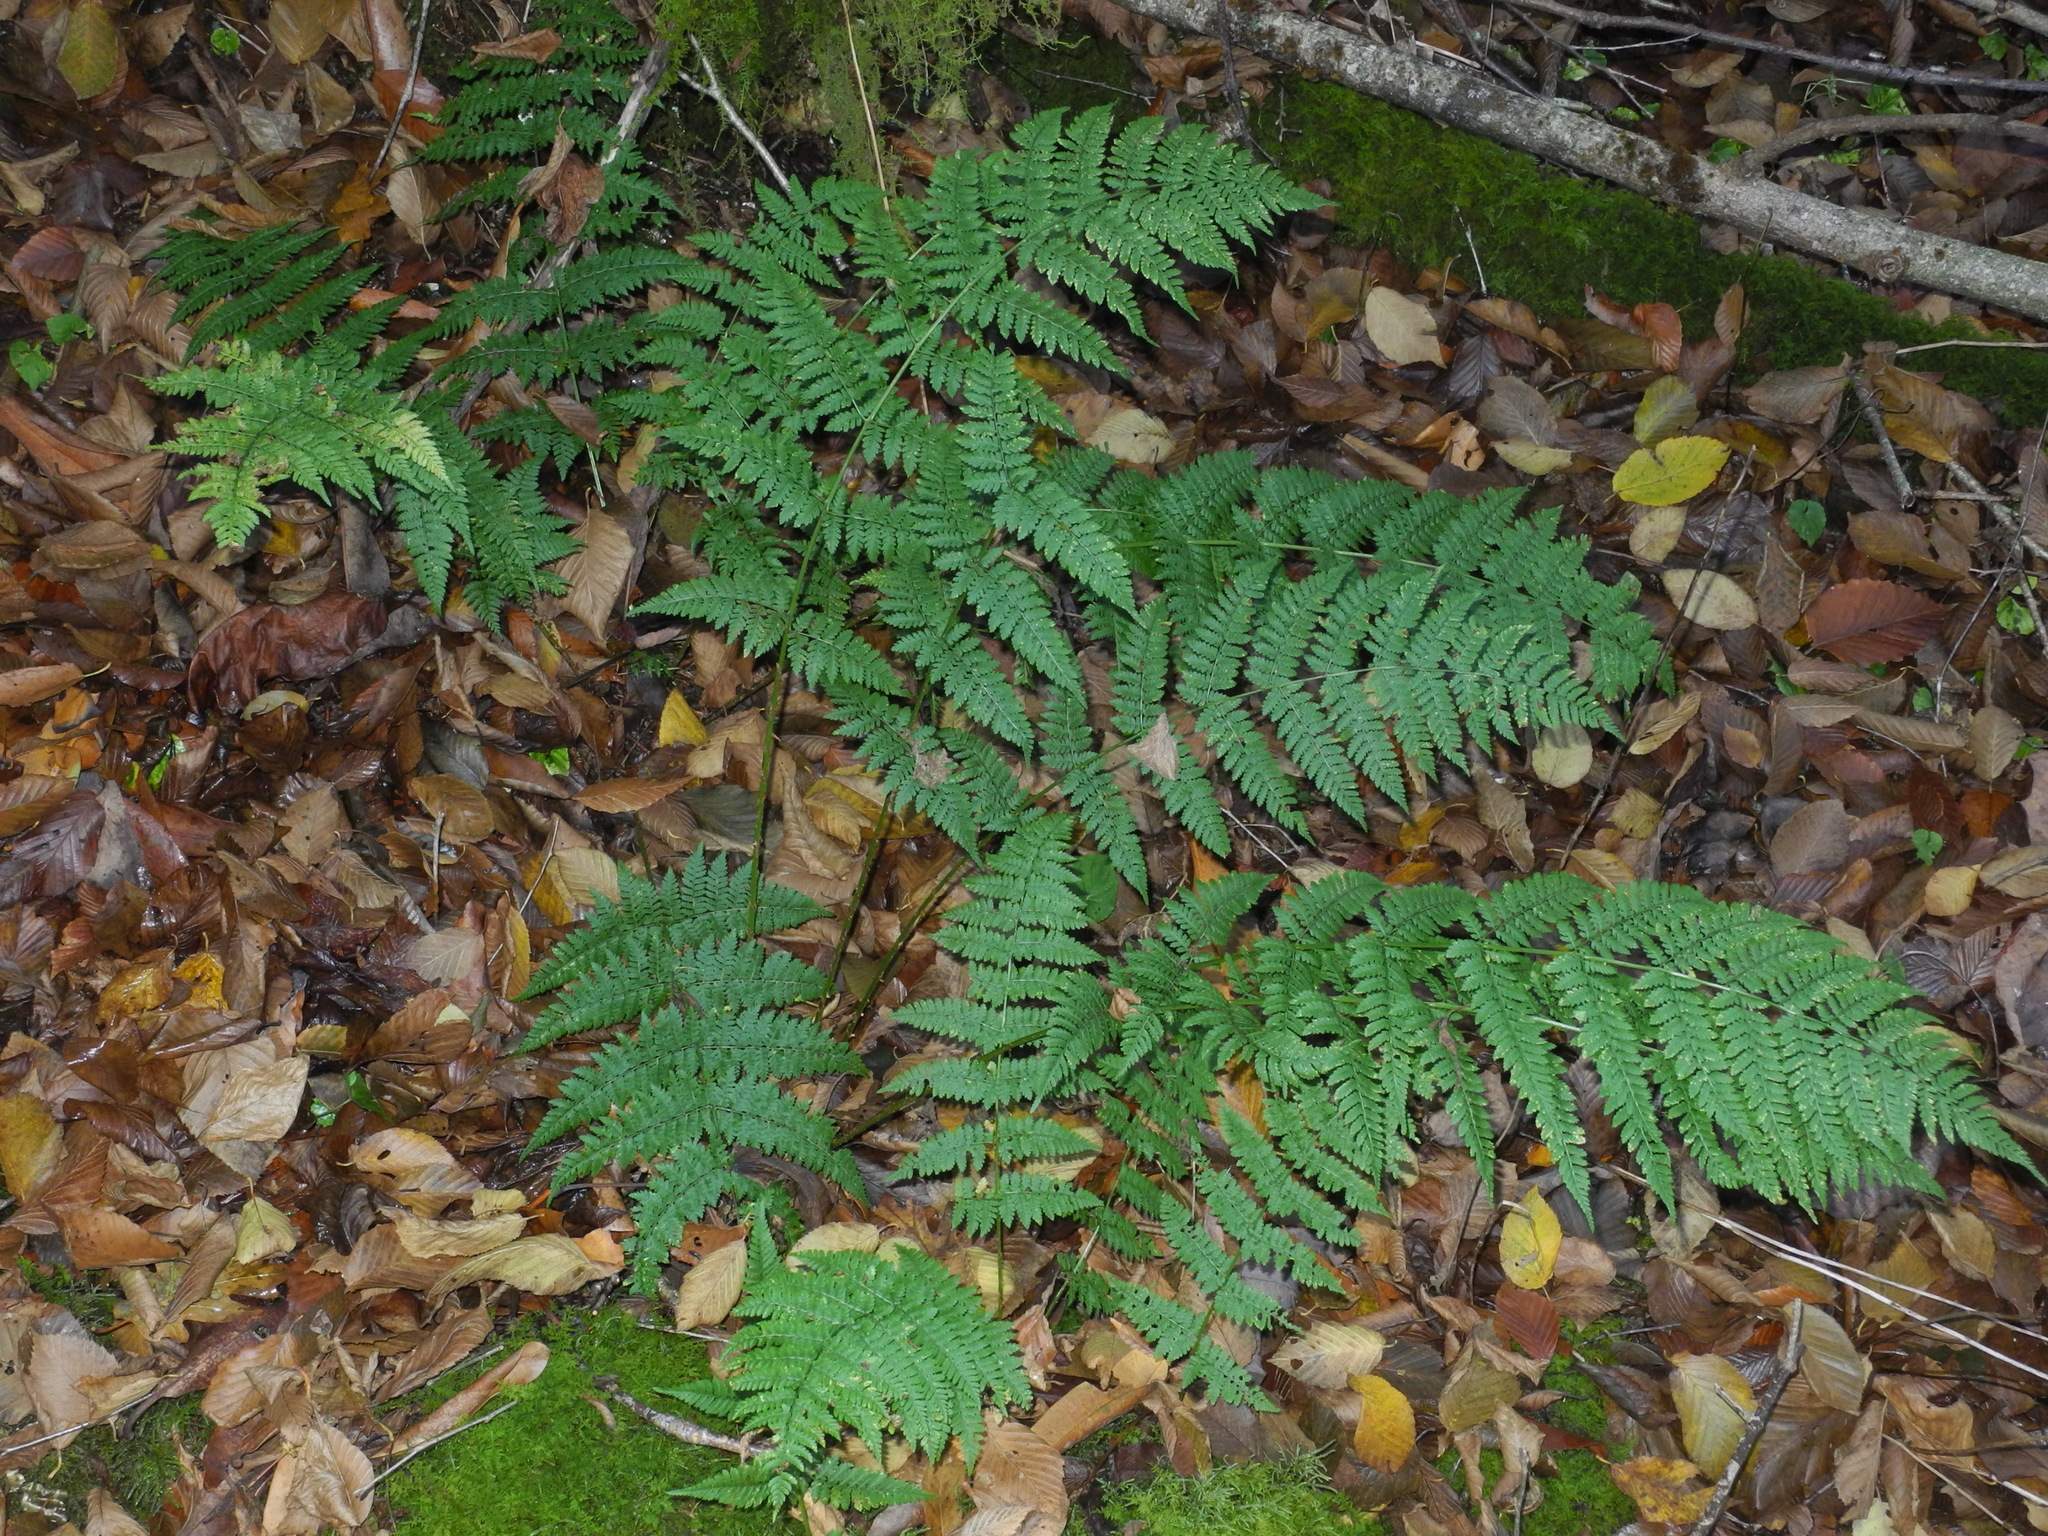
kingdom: Plantae
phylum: Tracheophyta
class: Polypodiopsida
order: Polypodiales
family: Dryopteridaceae
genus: Dryopteris
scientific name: Dryopteris intermedia
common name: Evergreen wood fern
